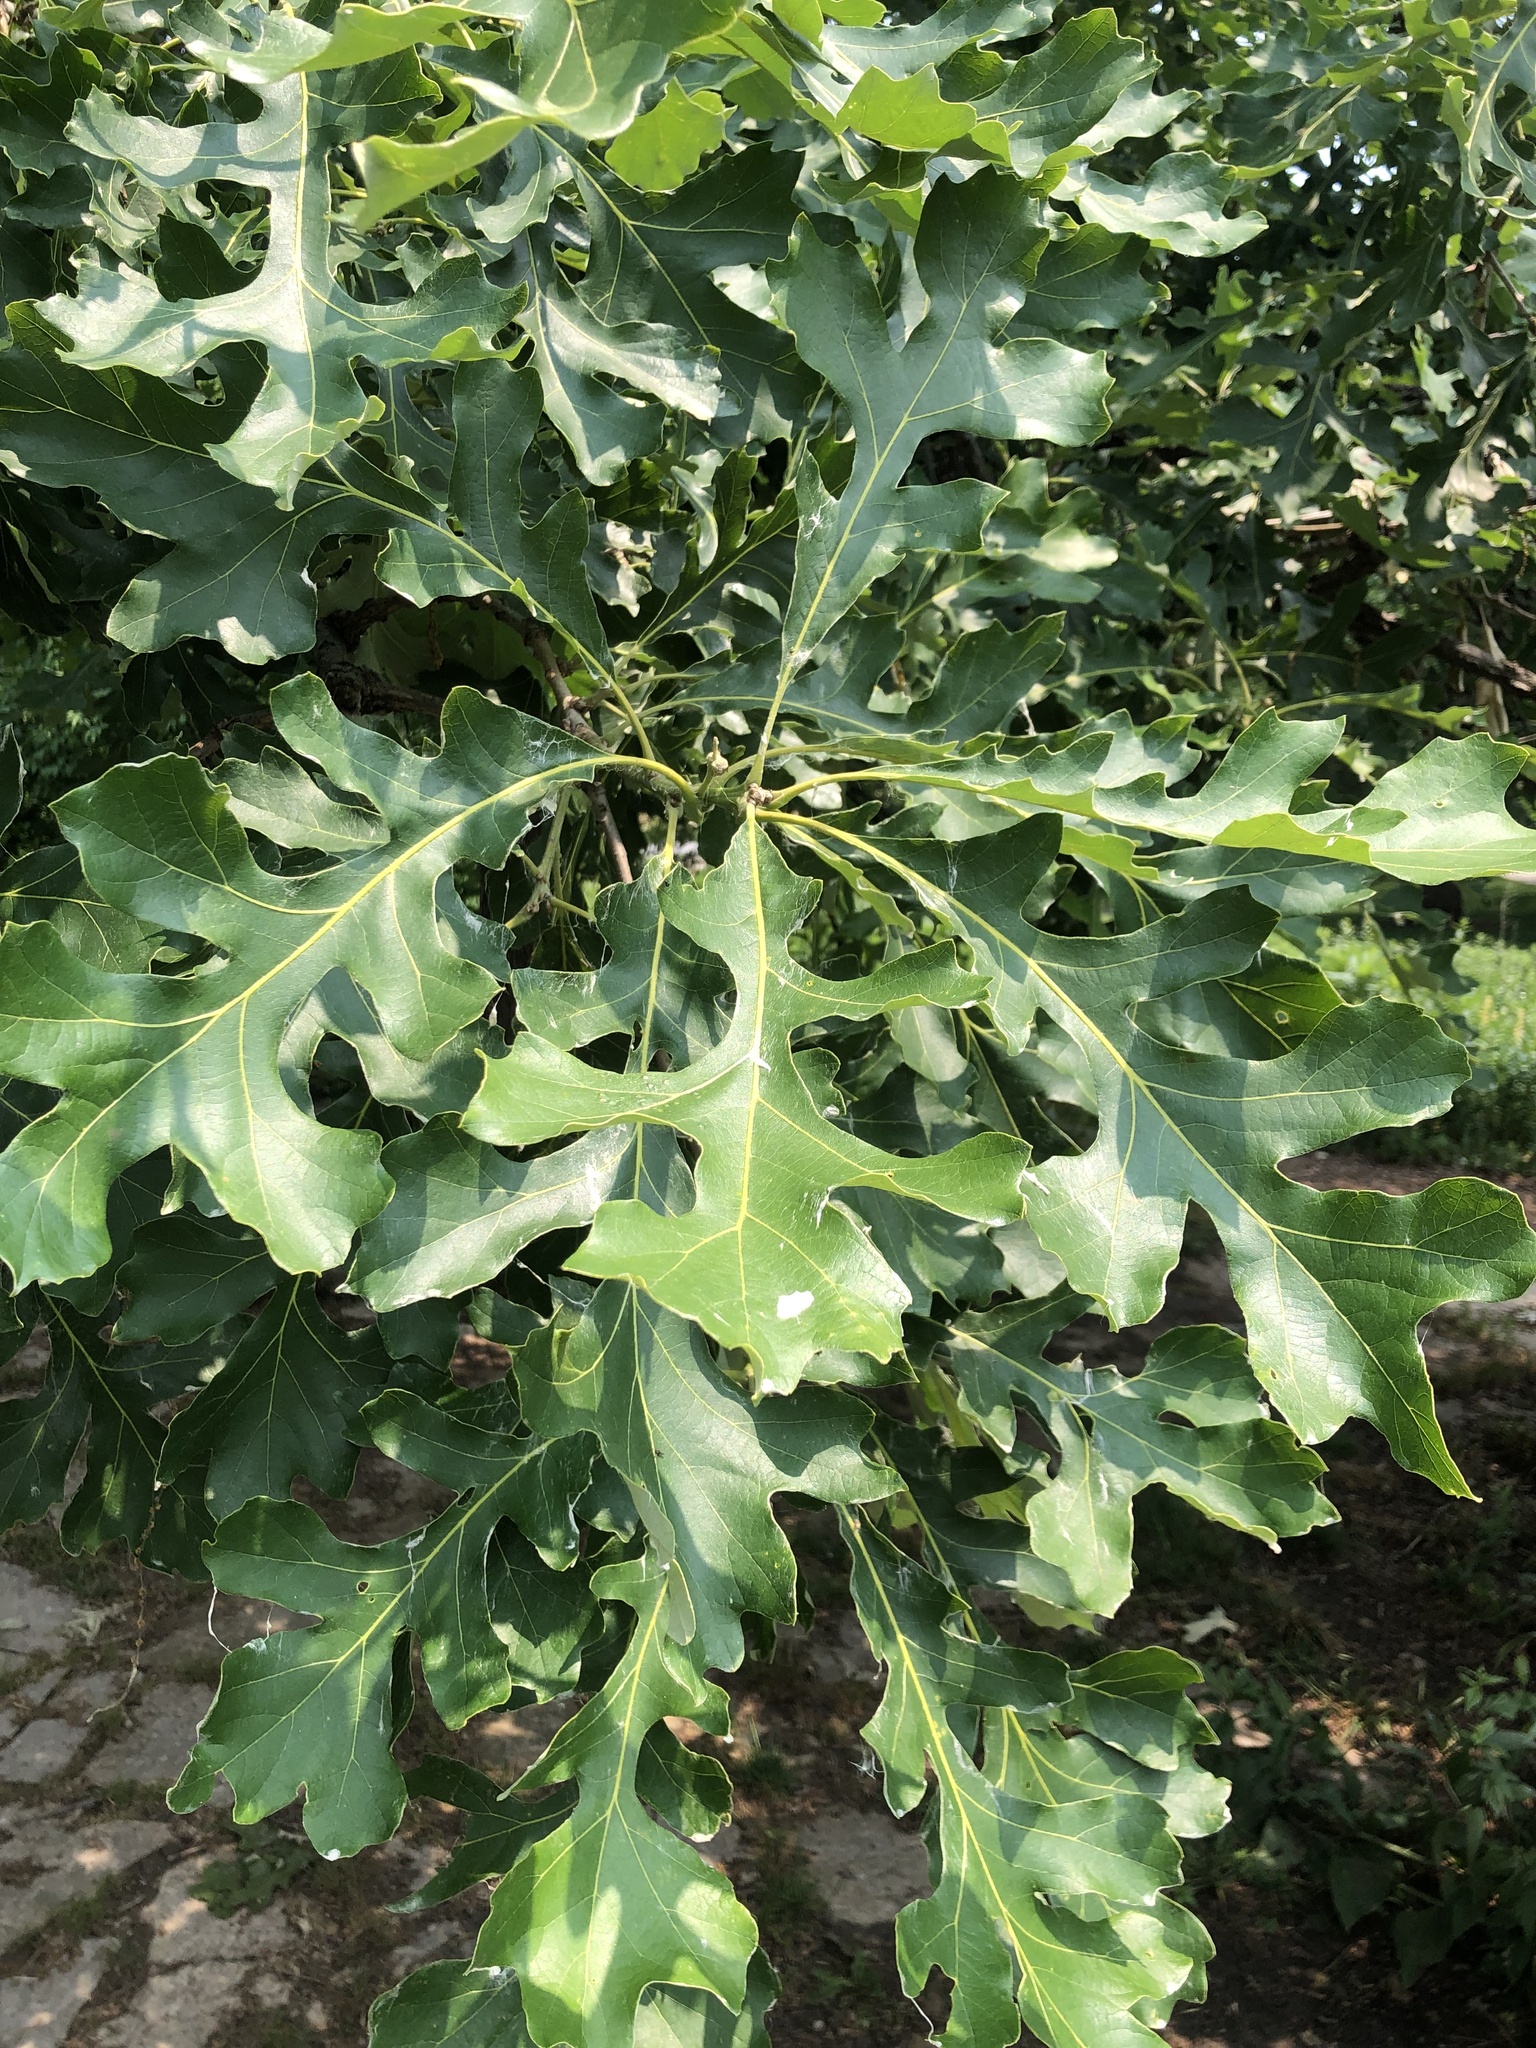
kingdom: Plantae
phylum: Tracheophyta
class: Magnoliopsida
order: Fagales
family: Fagaceae
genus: Quercus
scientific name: Quercus macrocarpa
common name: Bur oak
